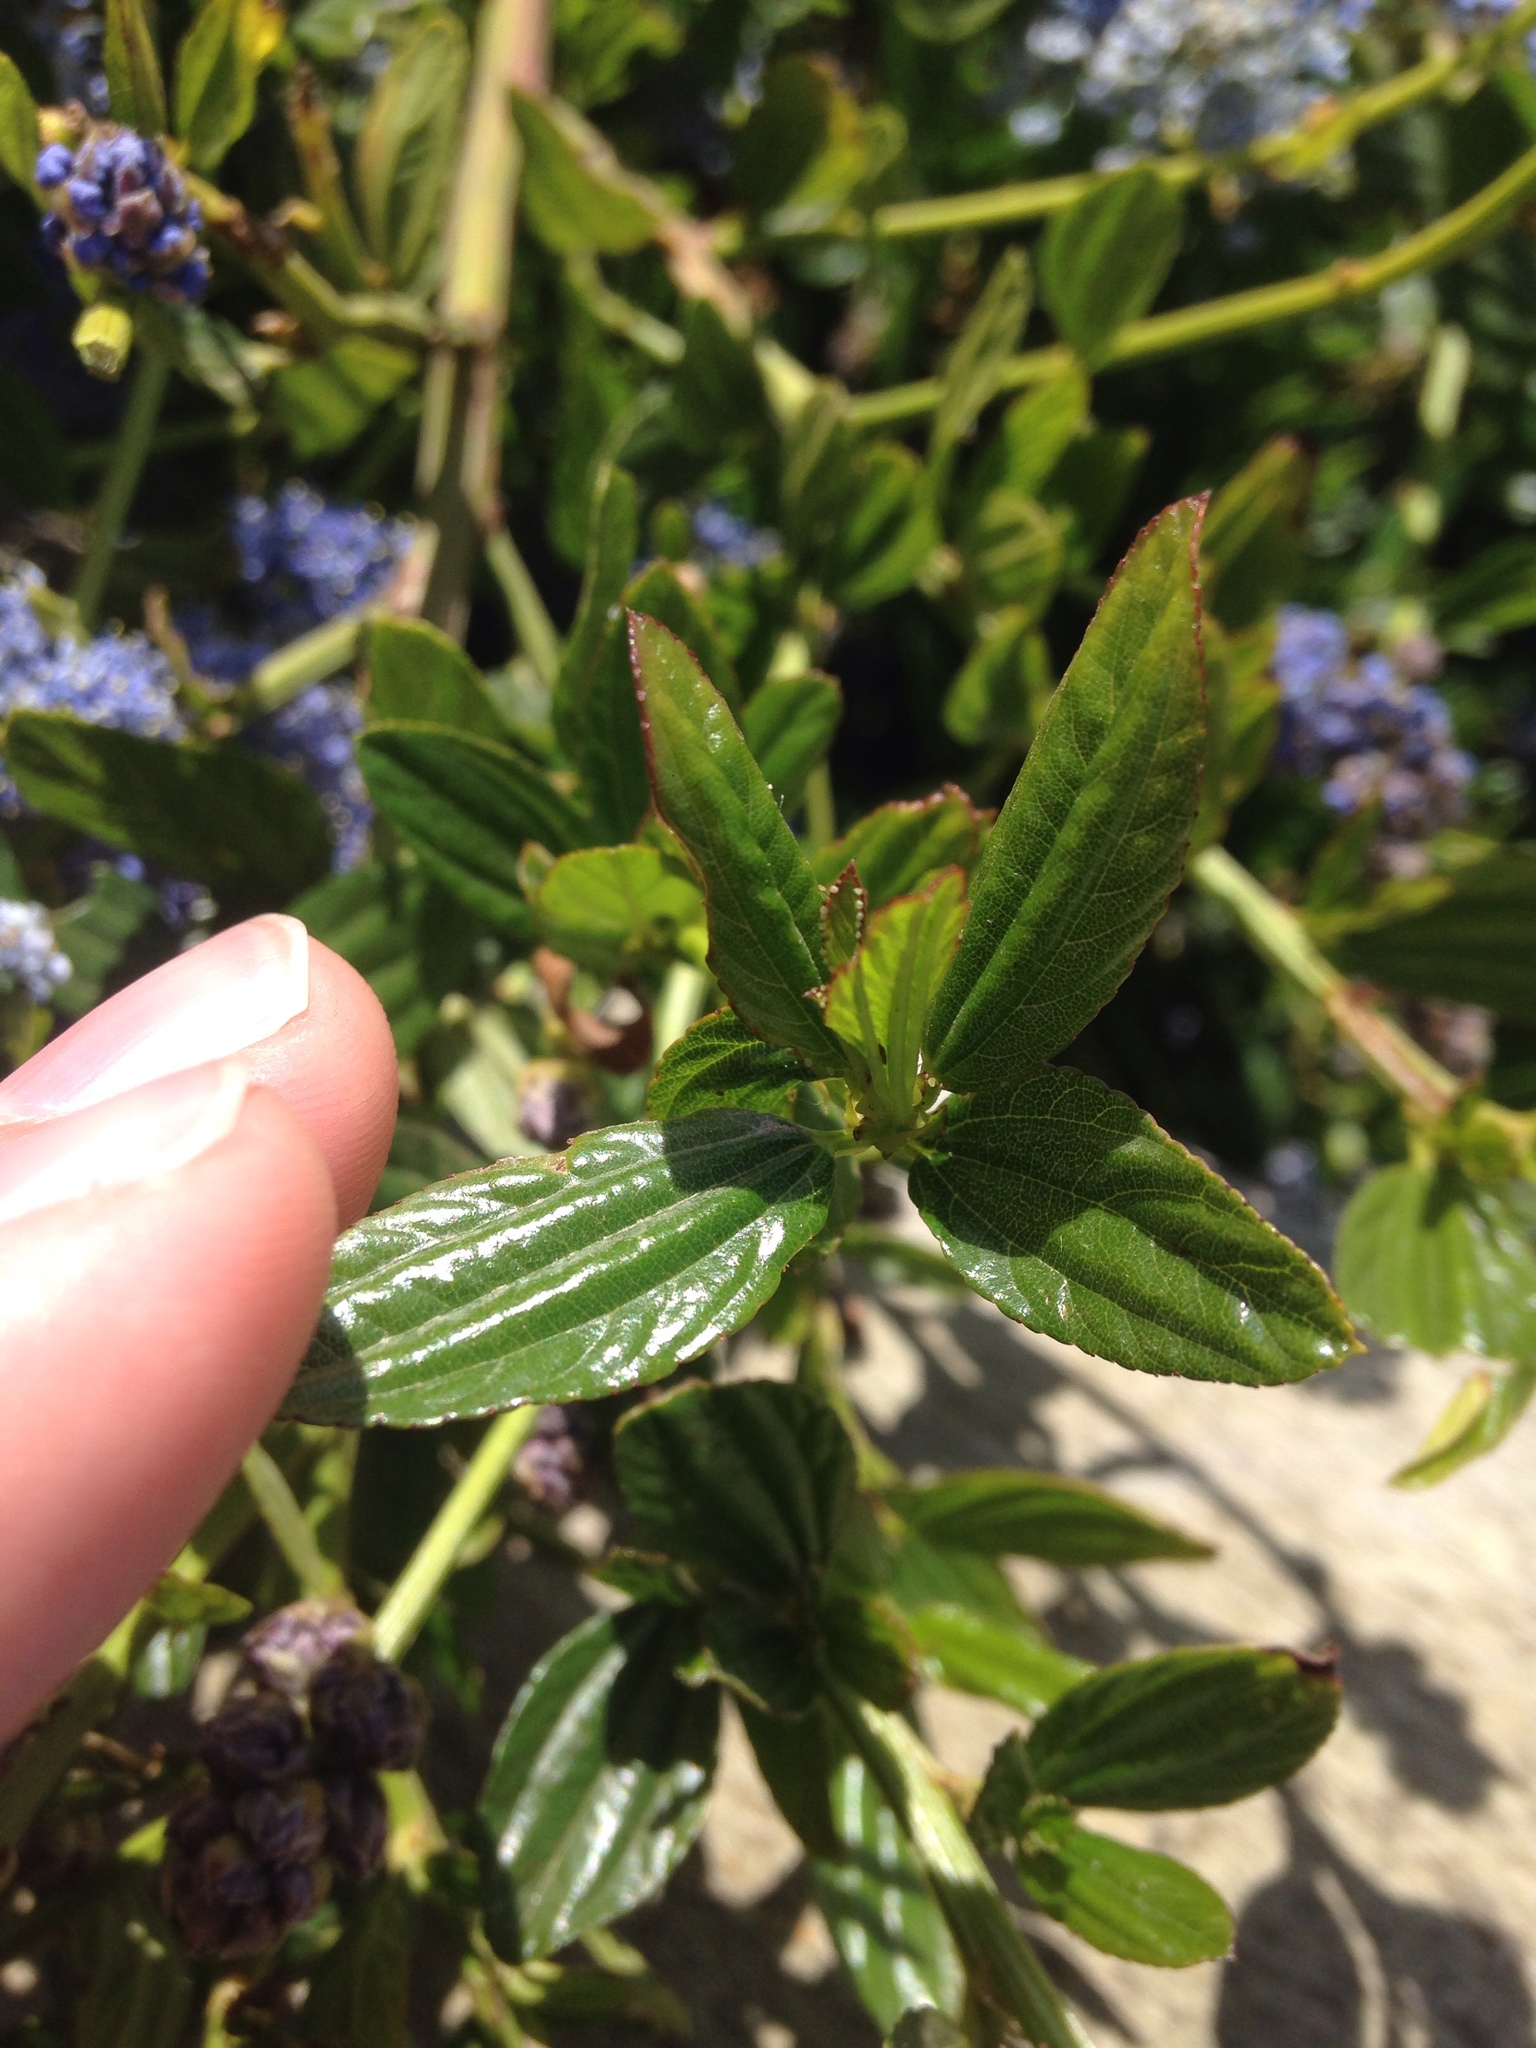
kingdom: Plantae
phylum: Tracheophyta
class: Magnoliopsida
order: Rosales
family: Rhamnaceae
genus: Ceanothus
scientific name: Ceanothus thyrsiflorus
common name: California-lilac
